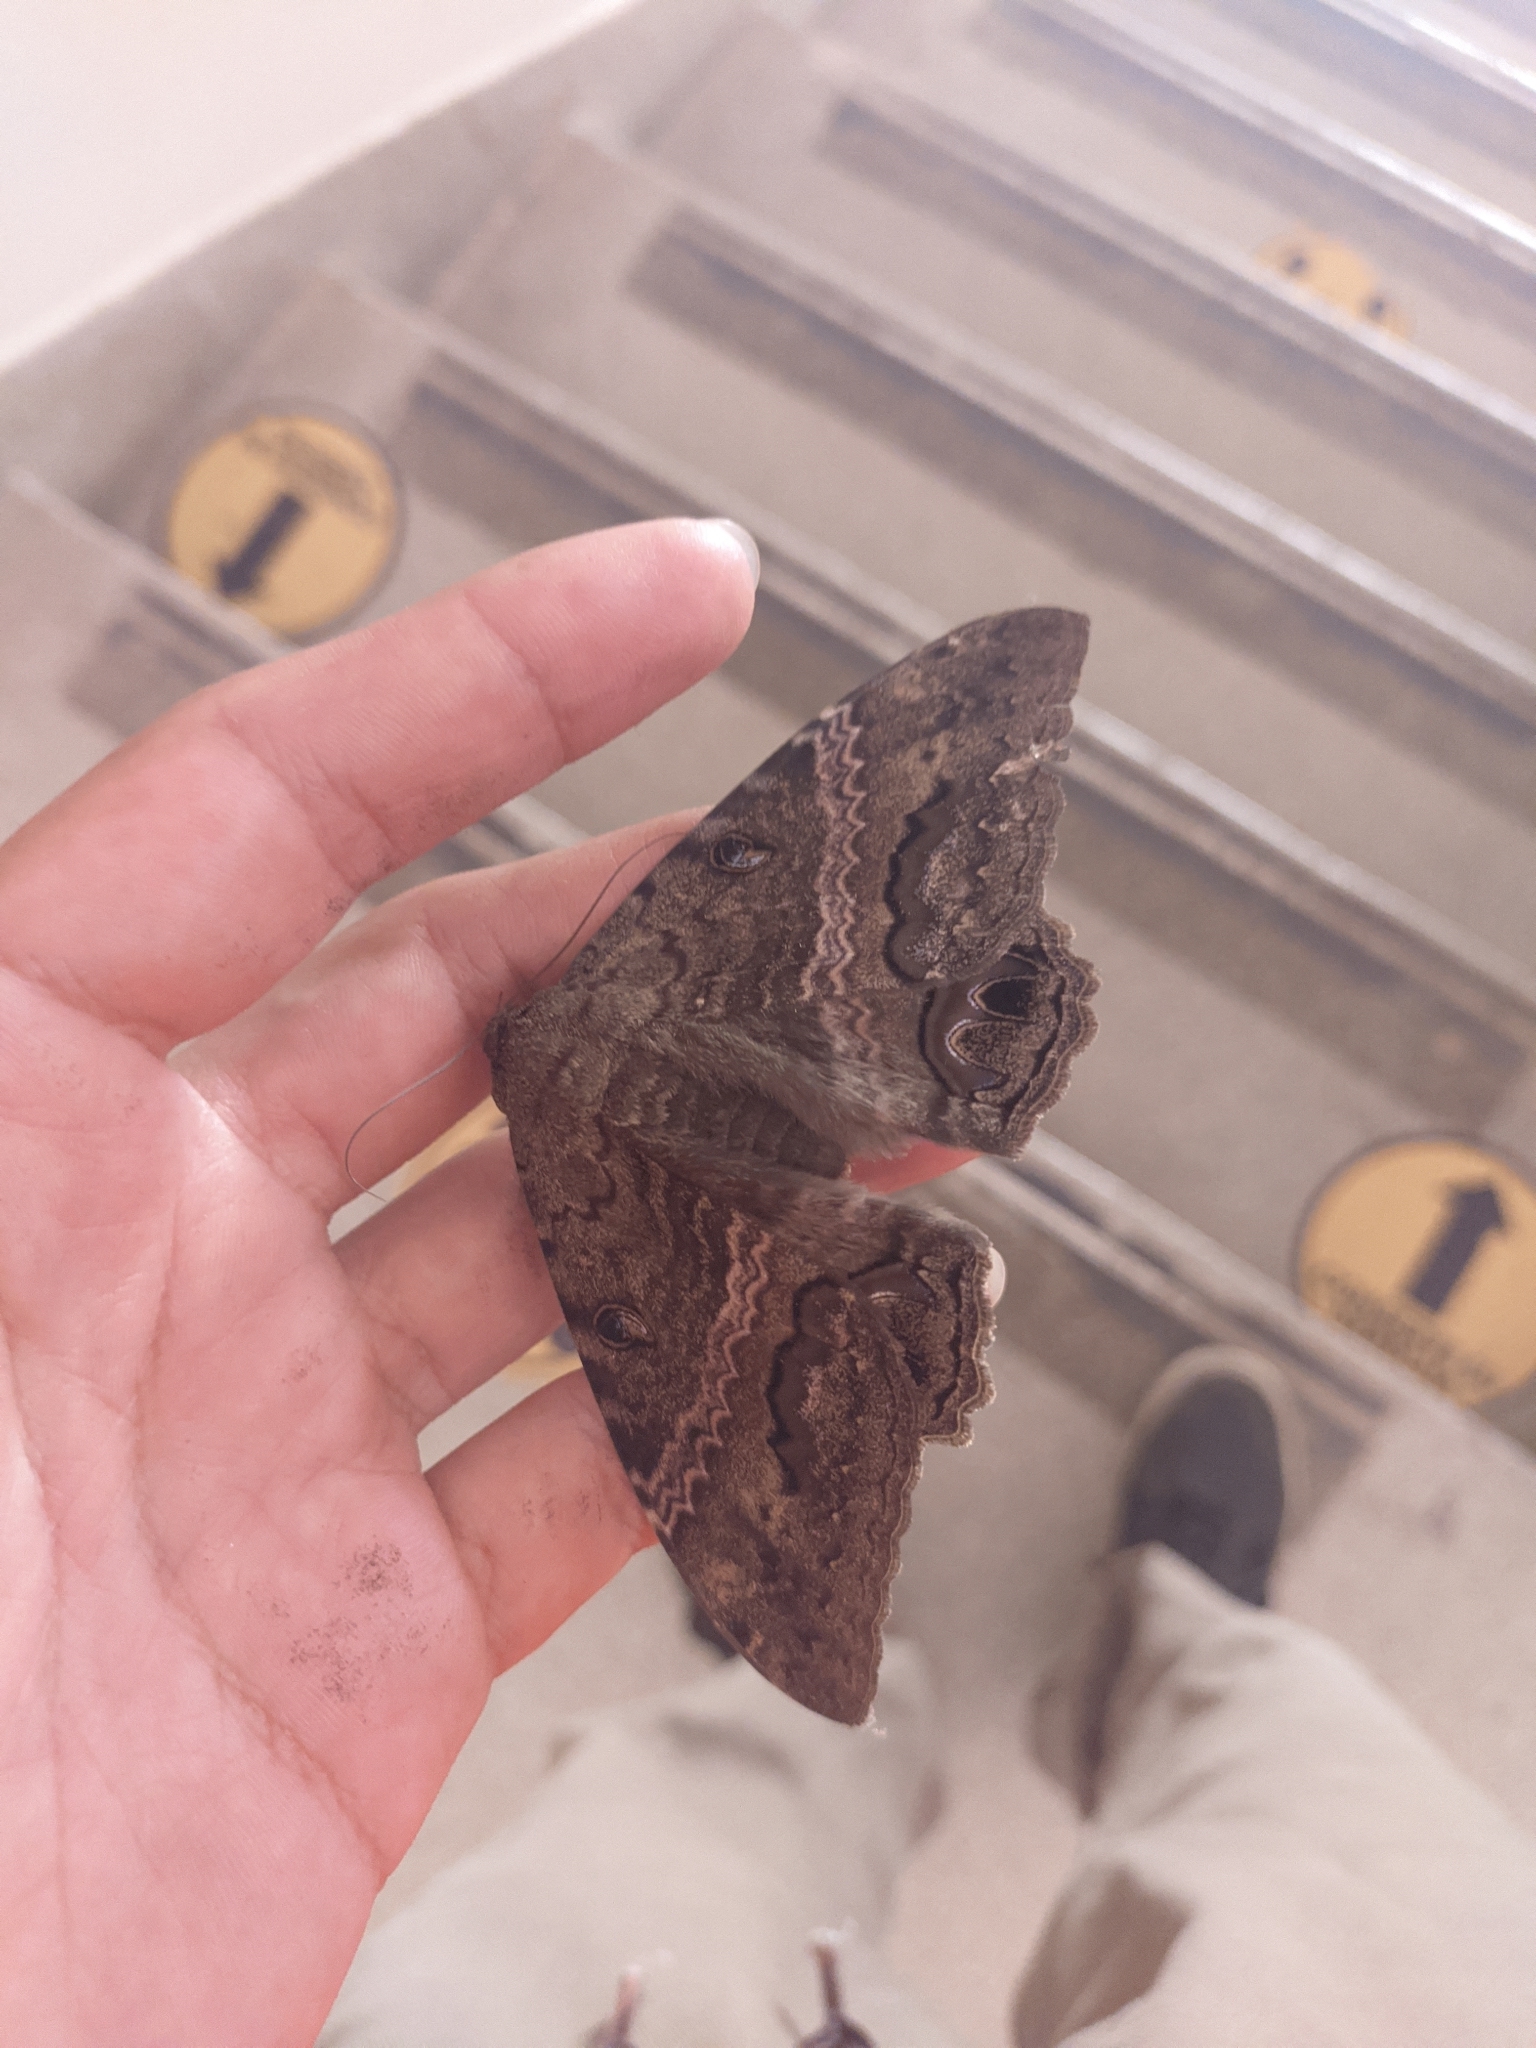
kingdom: Animalia
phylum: Arthropoda
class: Insecta
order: Lepidoptera
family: Erebidae
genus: Ascalapha
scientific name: Ascalapha odorata
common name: Black witch
